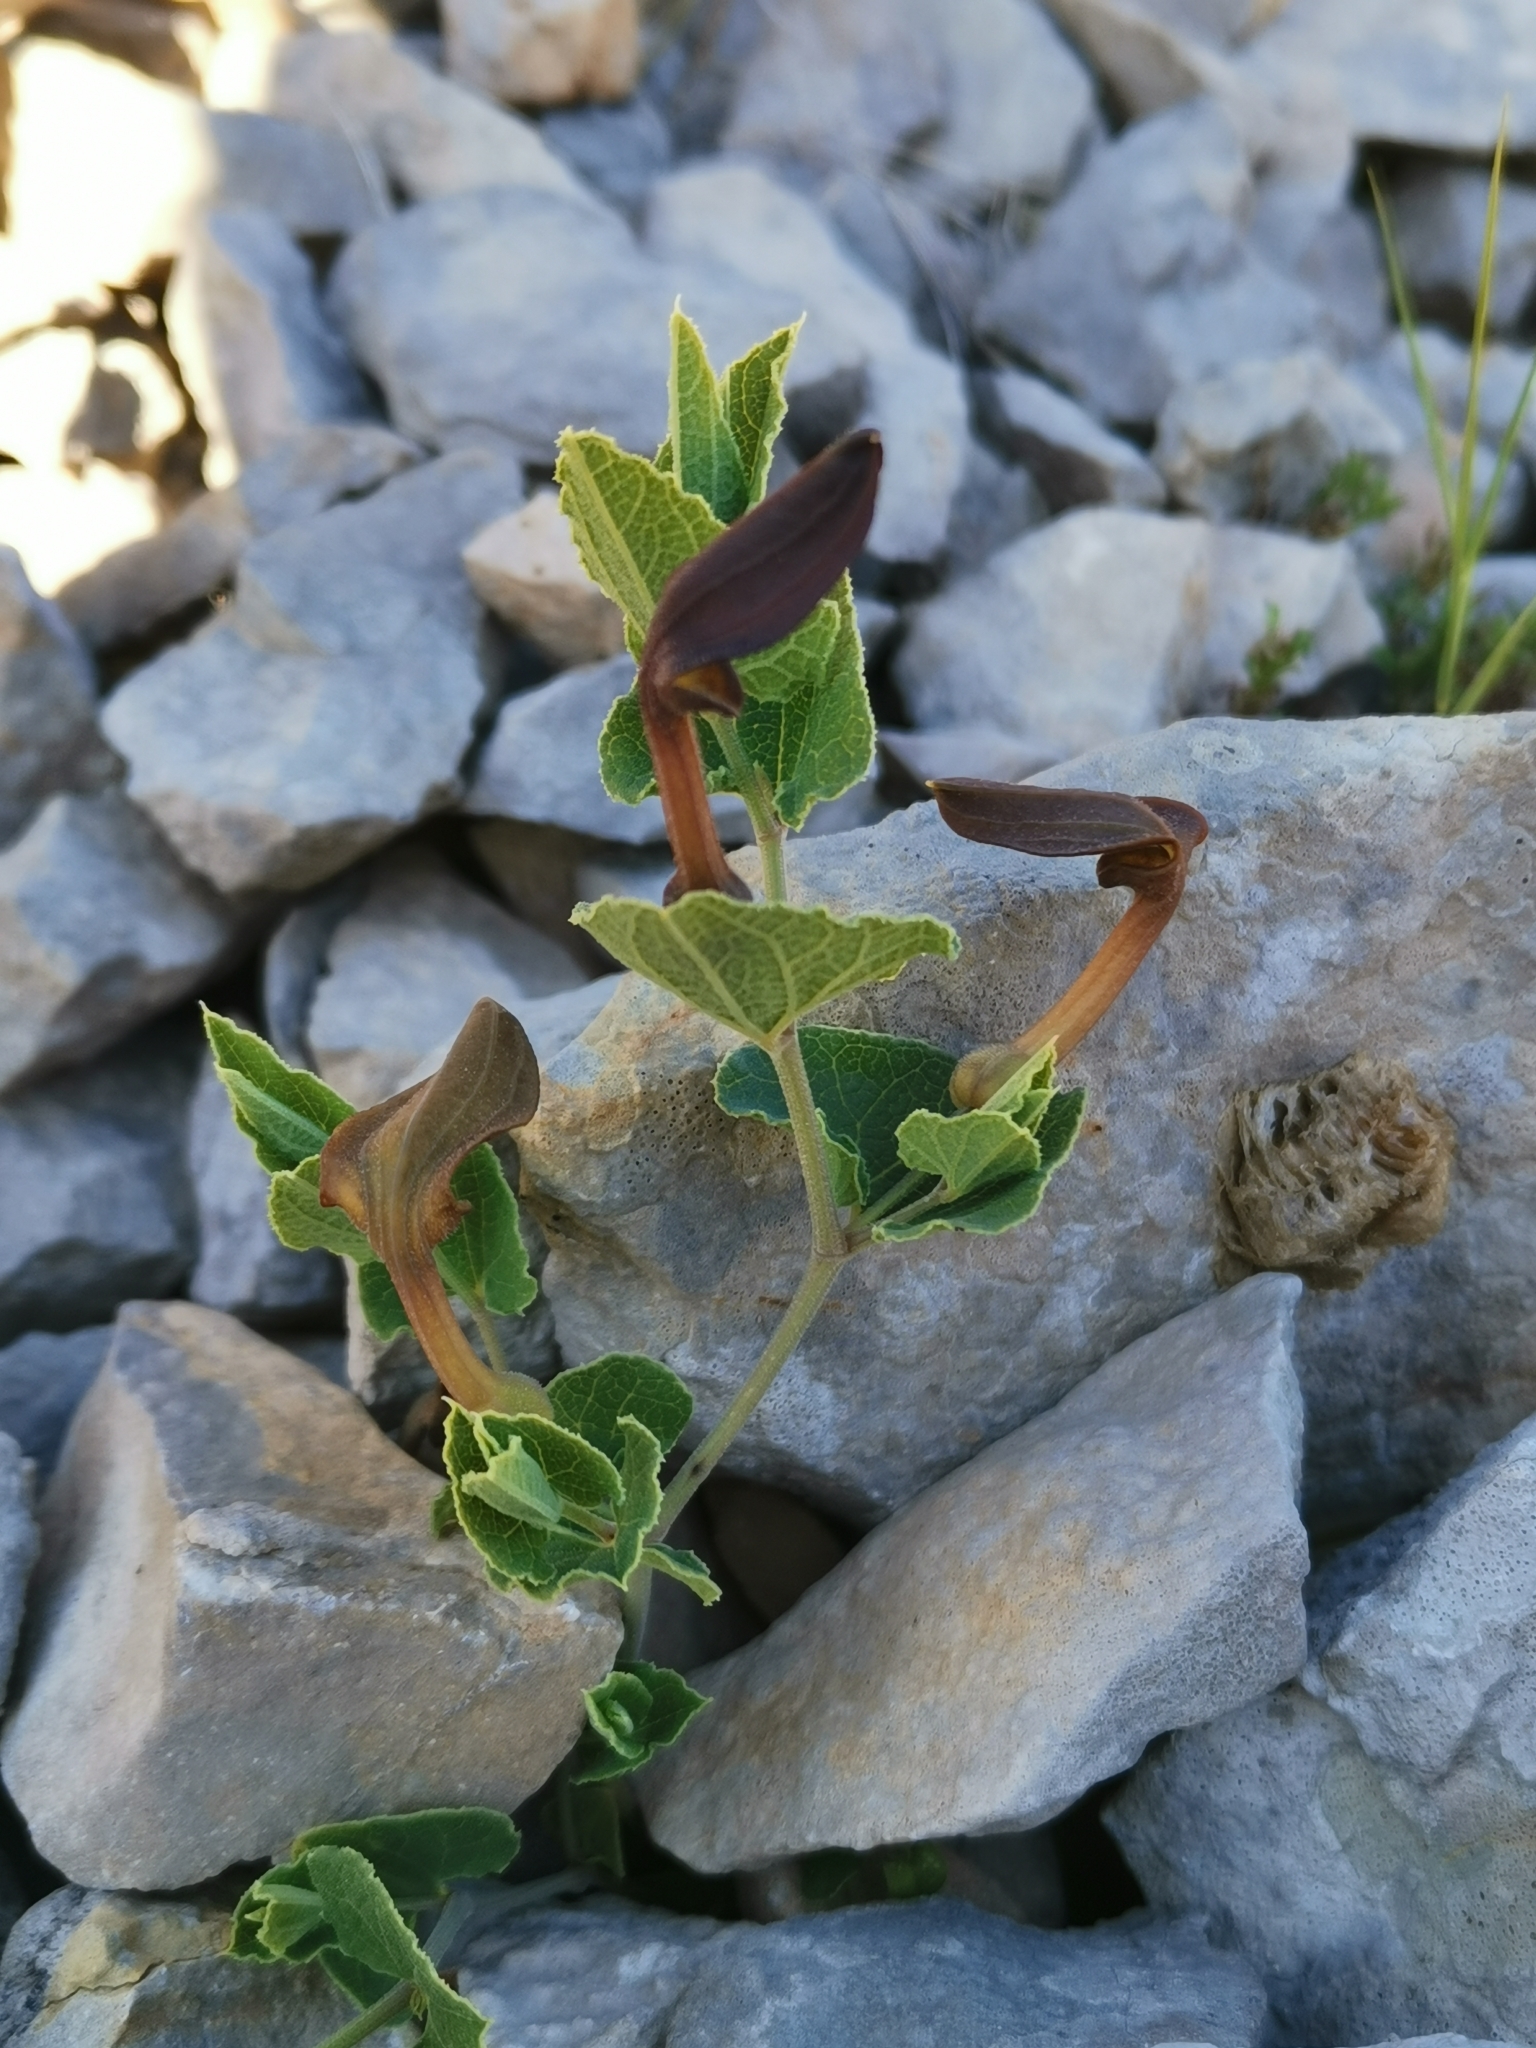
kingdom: Plantae
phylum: Tracheophyta
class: Magnoliopsida
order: Piperales
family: Aristolochiaceae
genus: Aristolochia
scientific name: Aristolochia pistolochia
